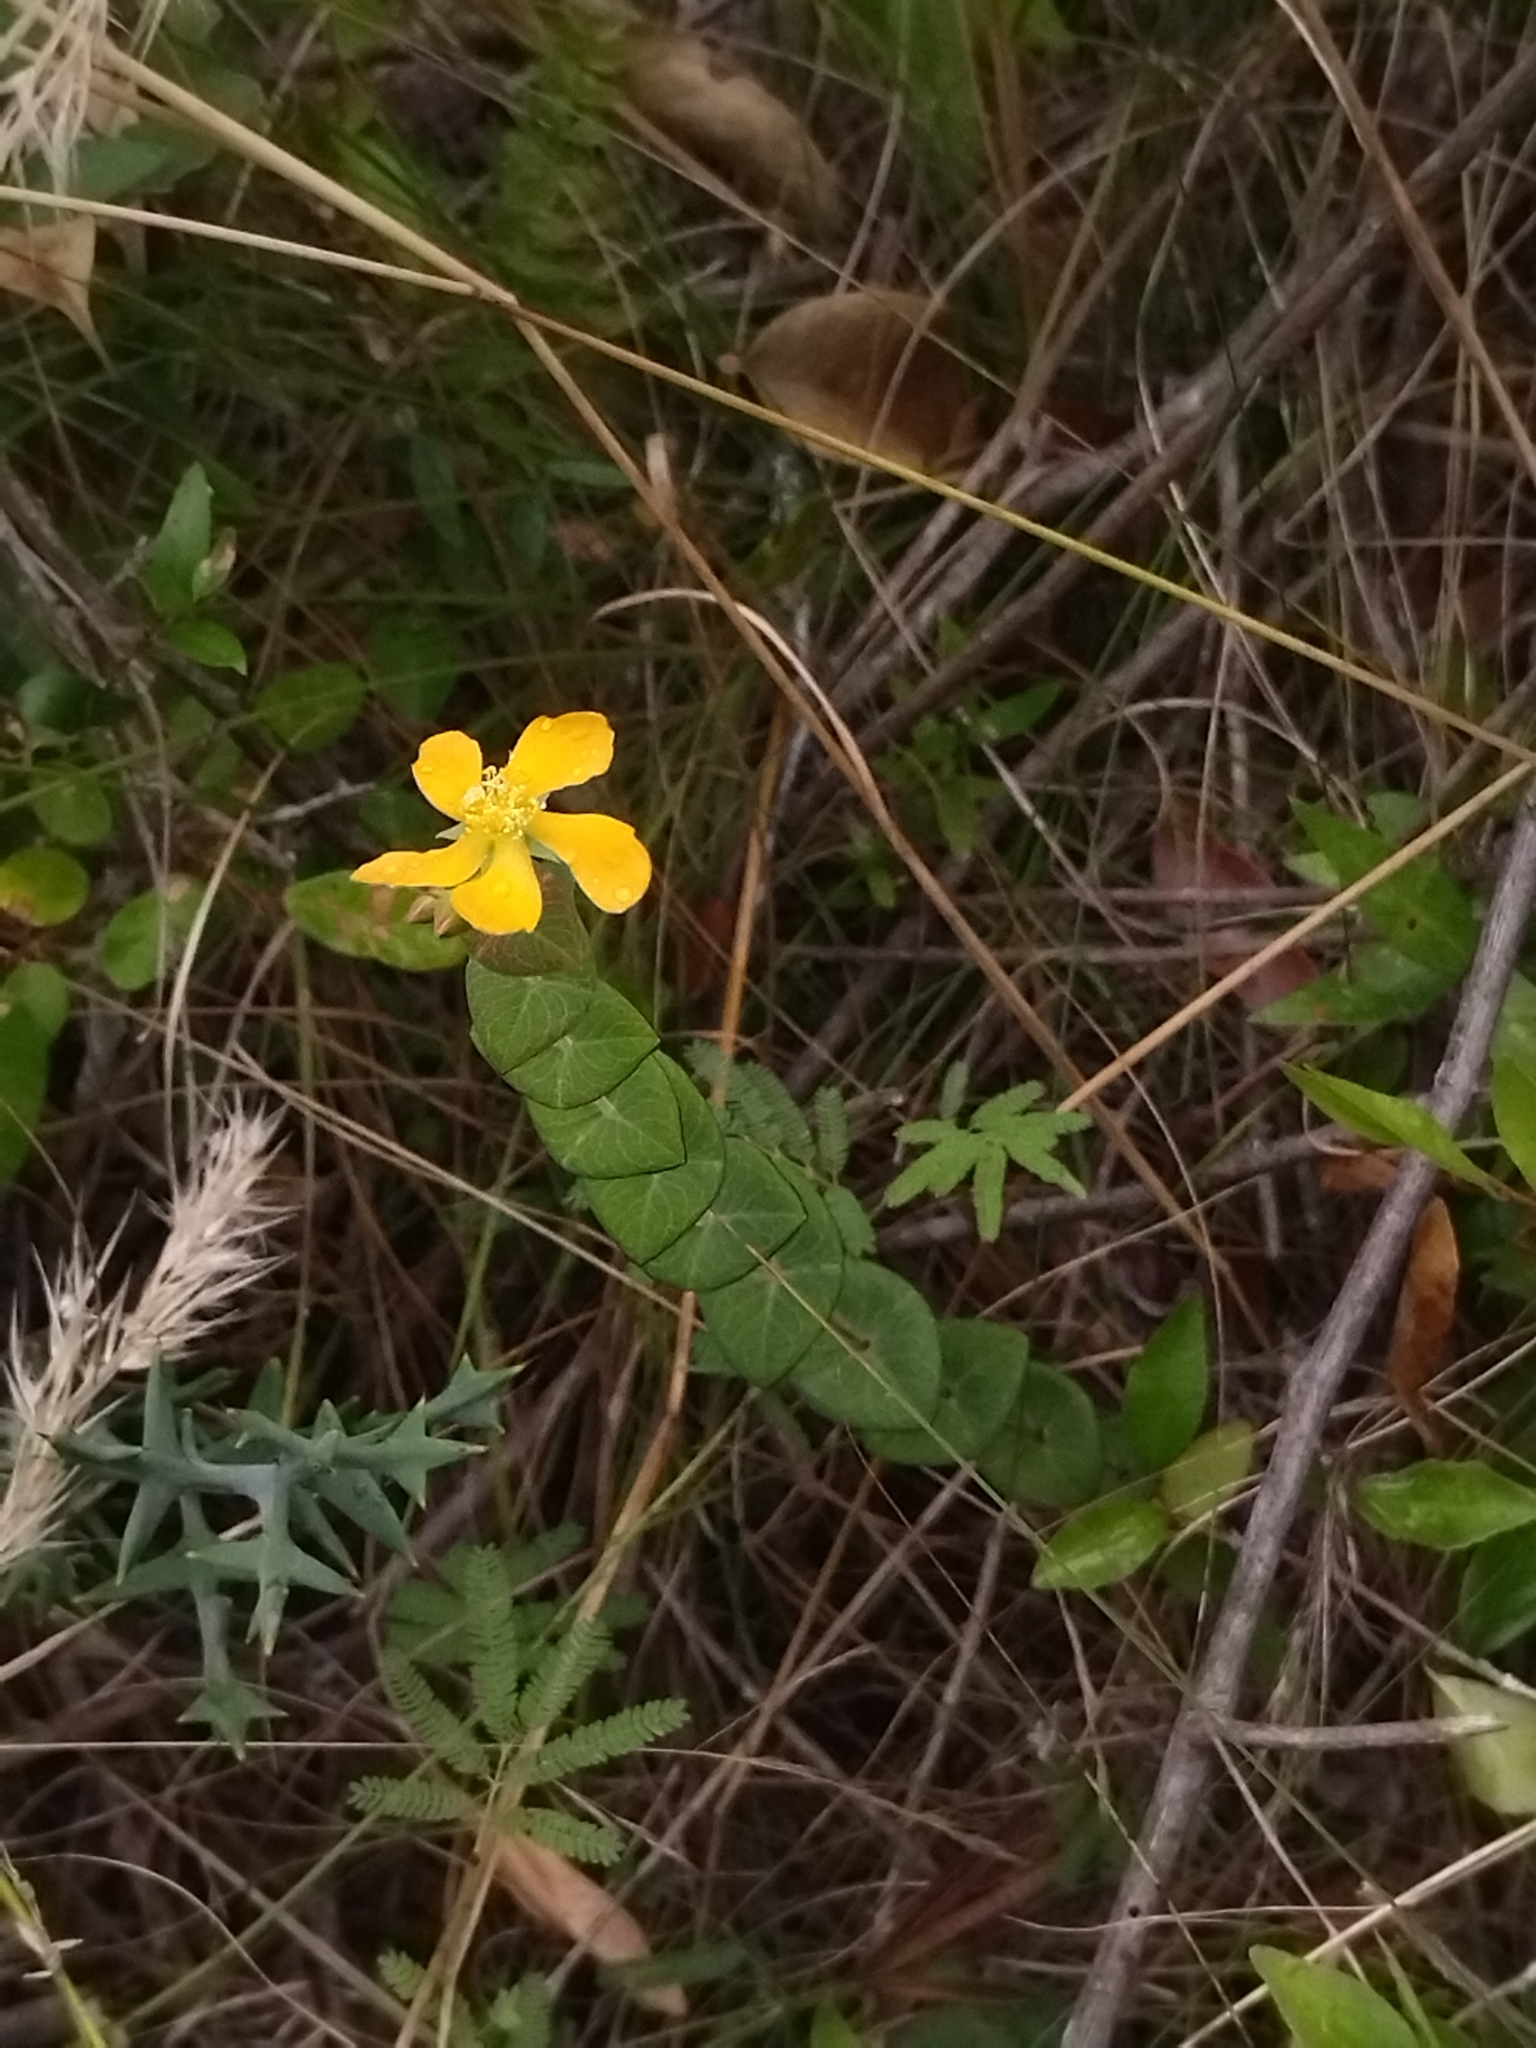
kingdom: Plantae
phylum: Tracheophyta
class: Magnoliopsida
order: Malpighiales
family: Hypericaceae
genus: Hypericum
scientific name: Hypericum connatum
